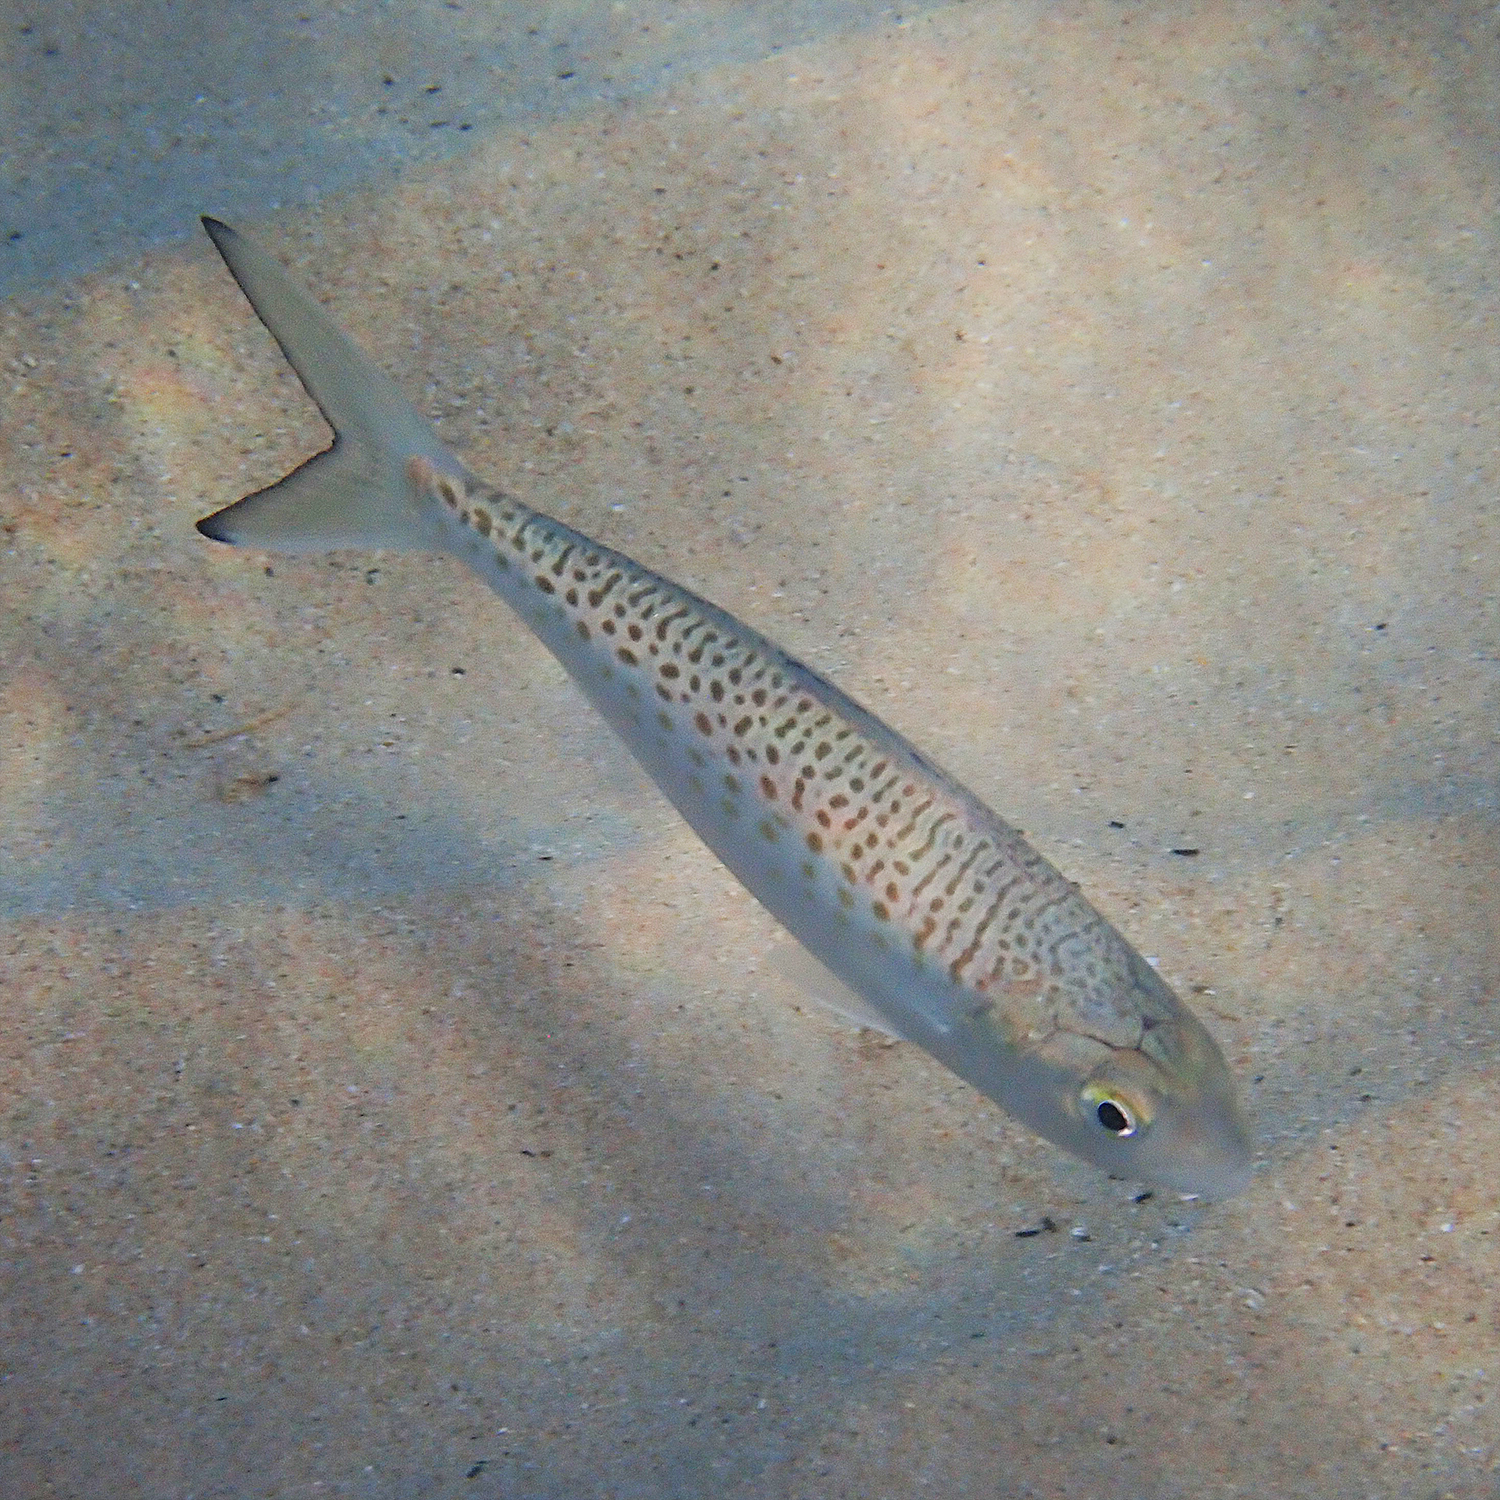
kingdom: Animalia
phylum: Chordata
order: Perciformes
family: Arripidae
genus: Arripis
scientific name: Arripis xylabion
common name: Giant kahawai
